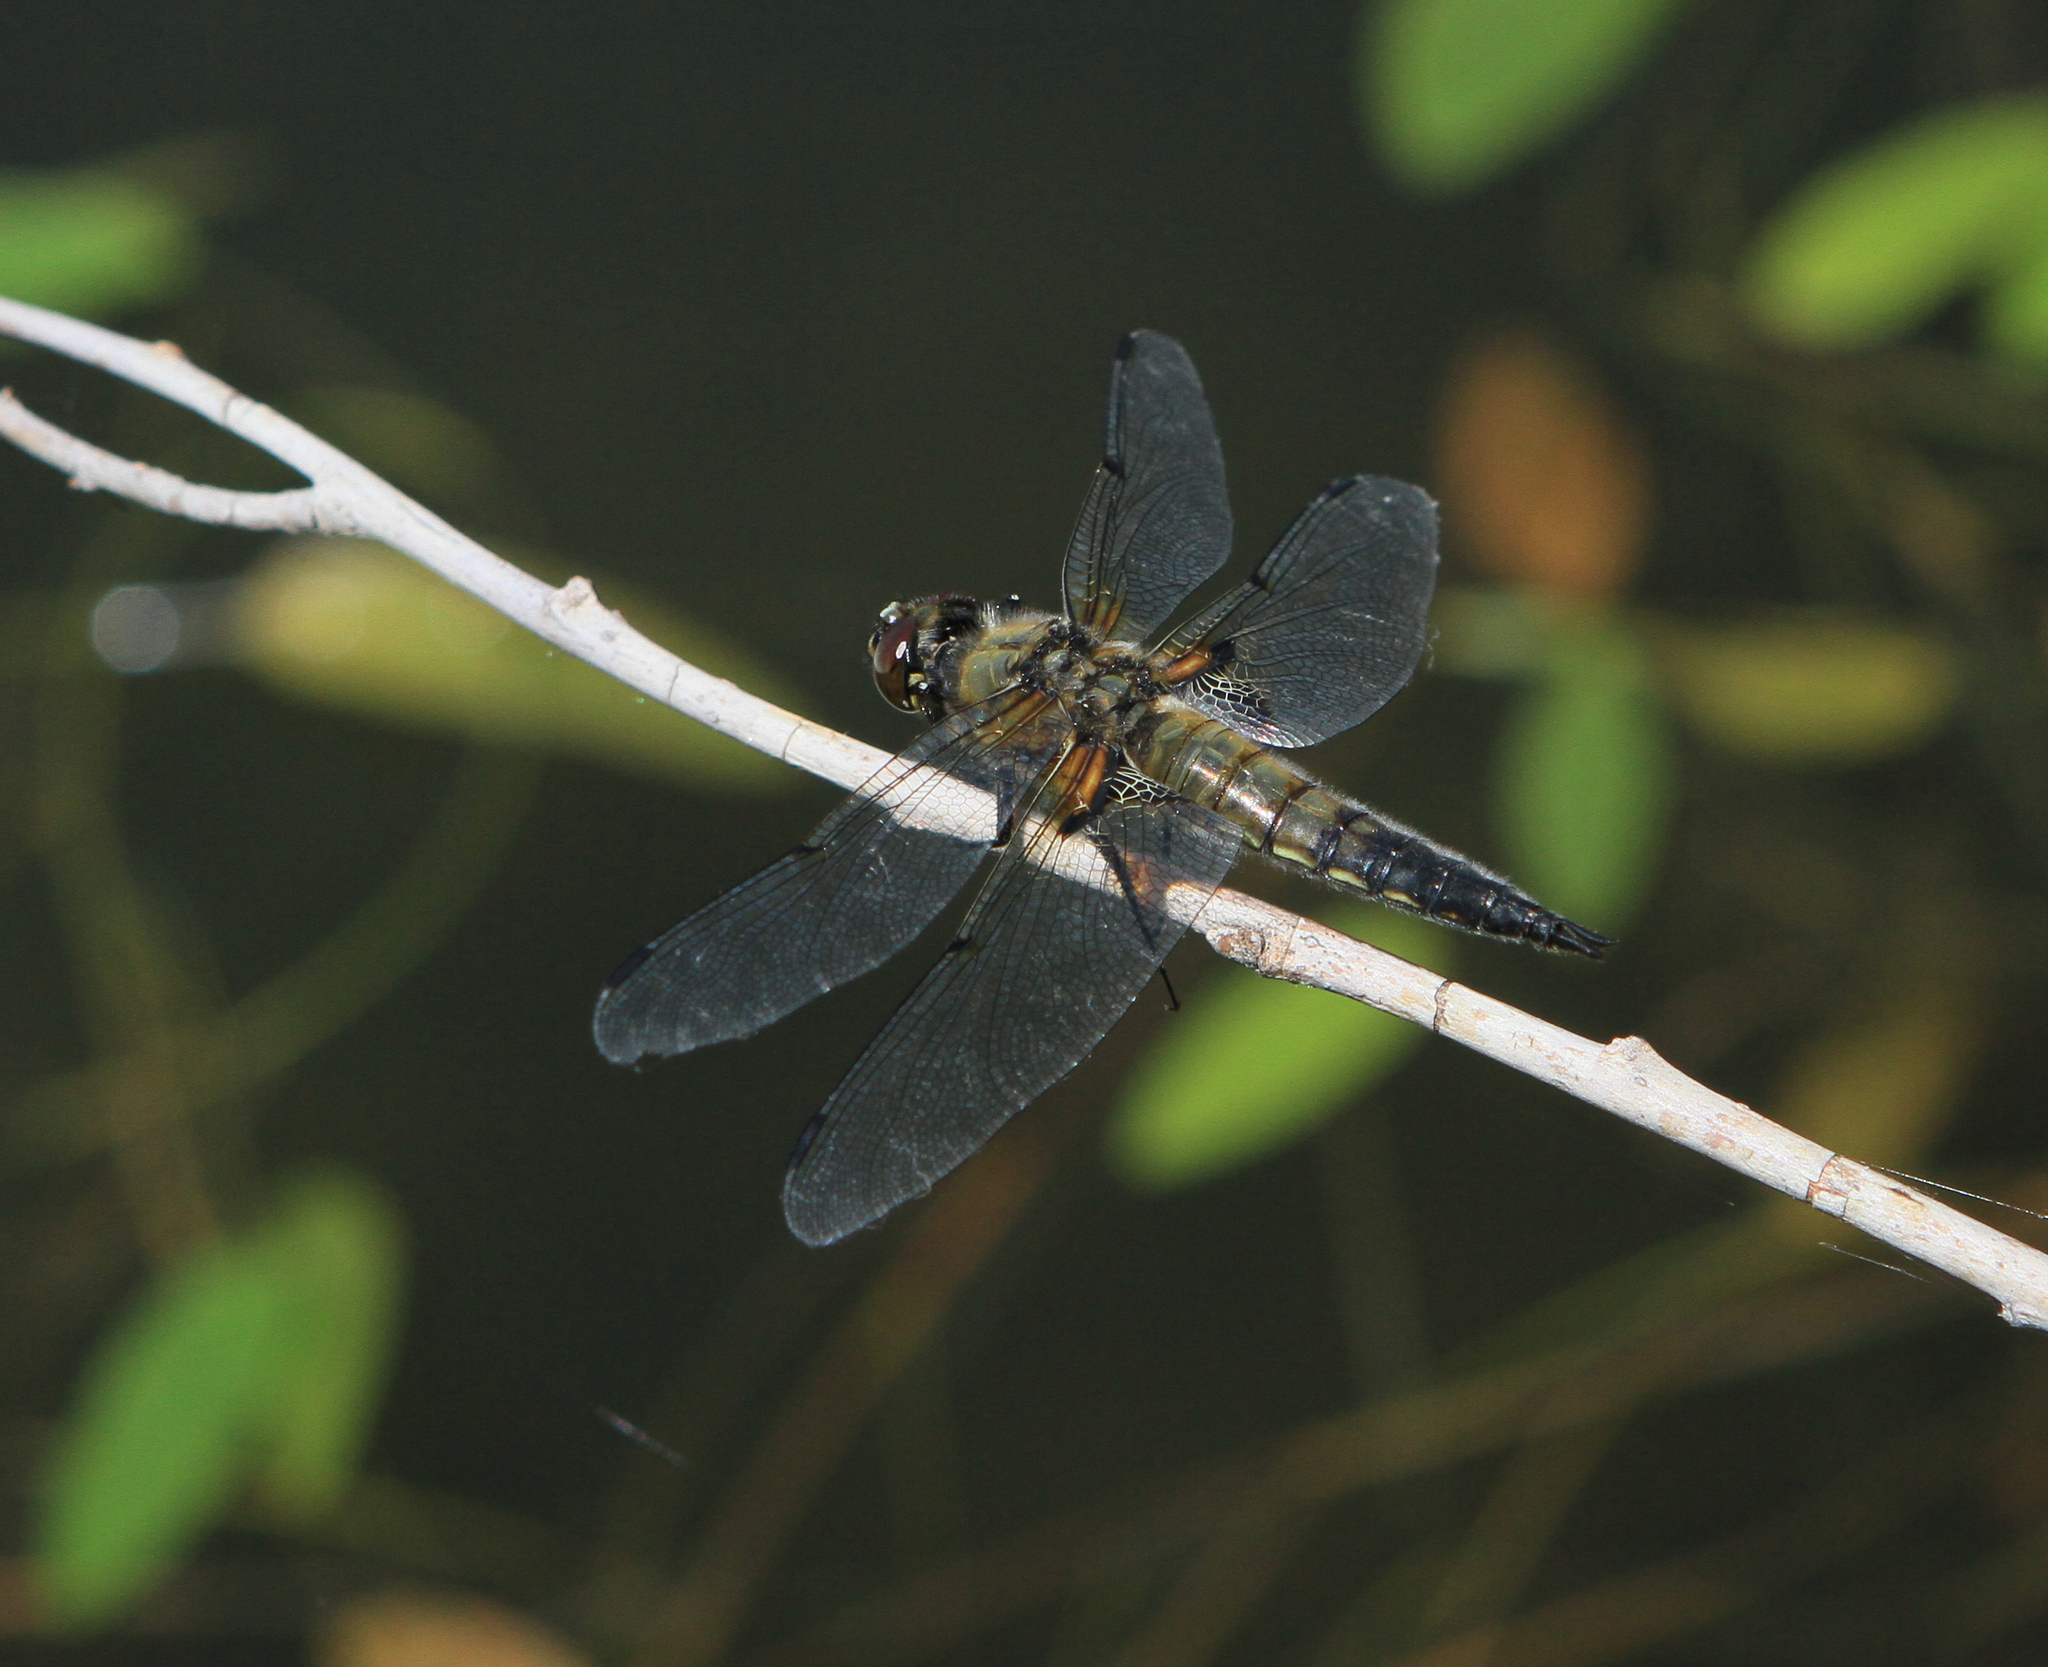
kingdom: Animalia
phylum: Arthropoda
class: Insecta
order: Odonata
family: Libellulidae
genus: Libellula
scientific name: Libellula quadrimaculata
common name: Four-spotted chaser
